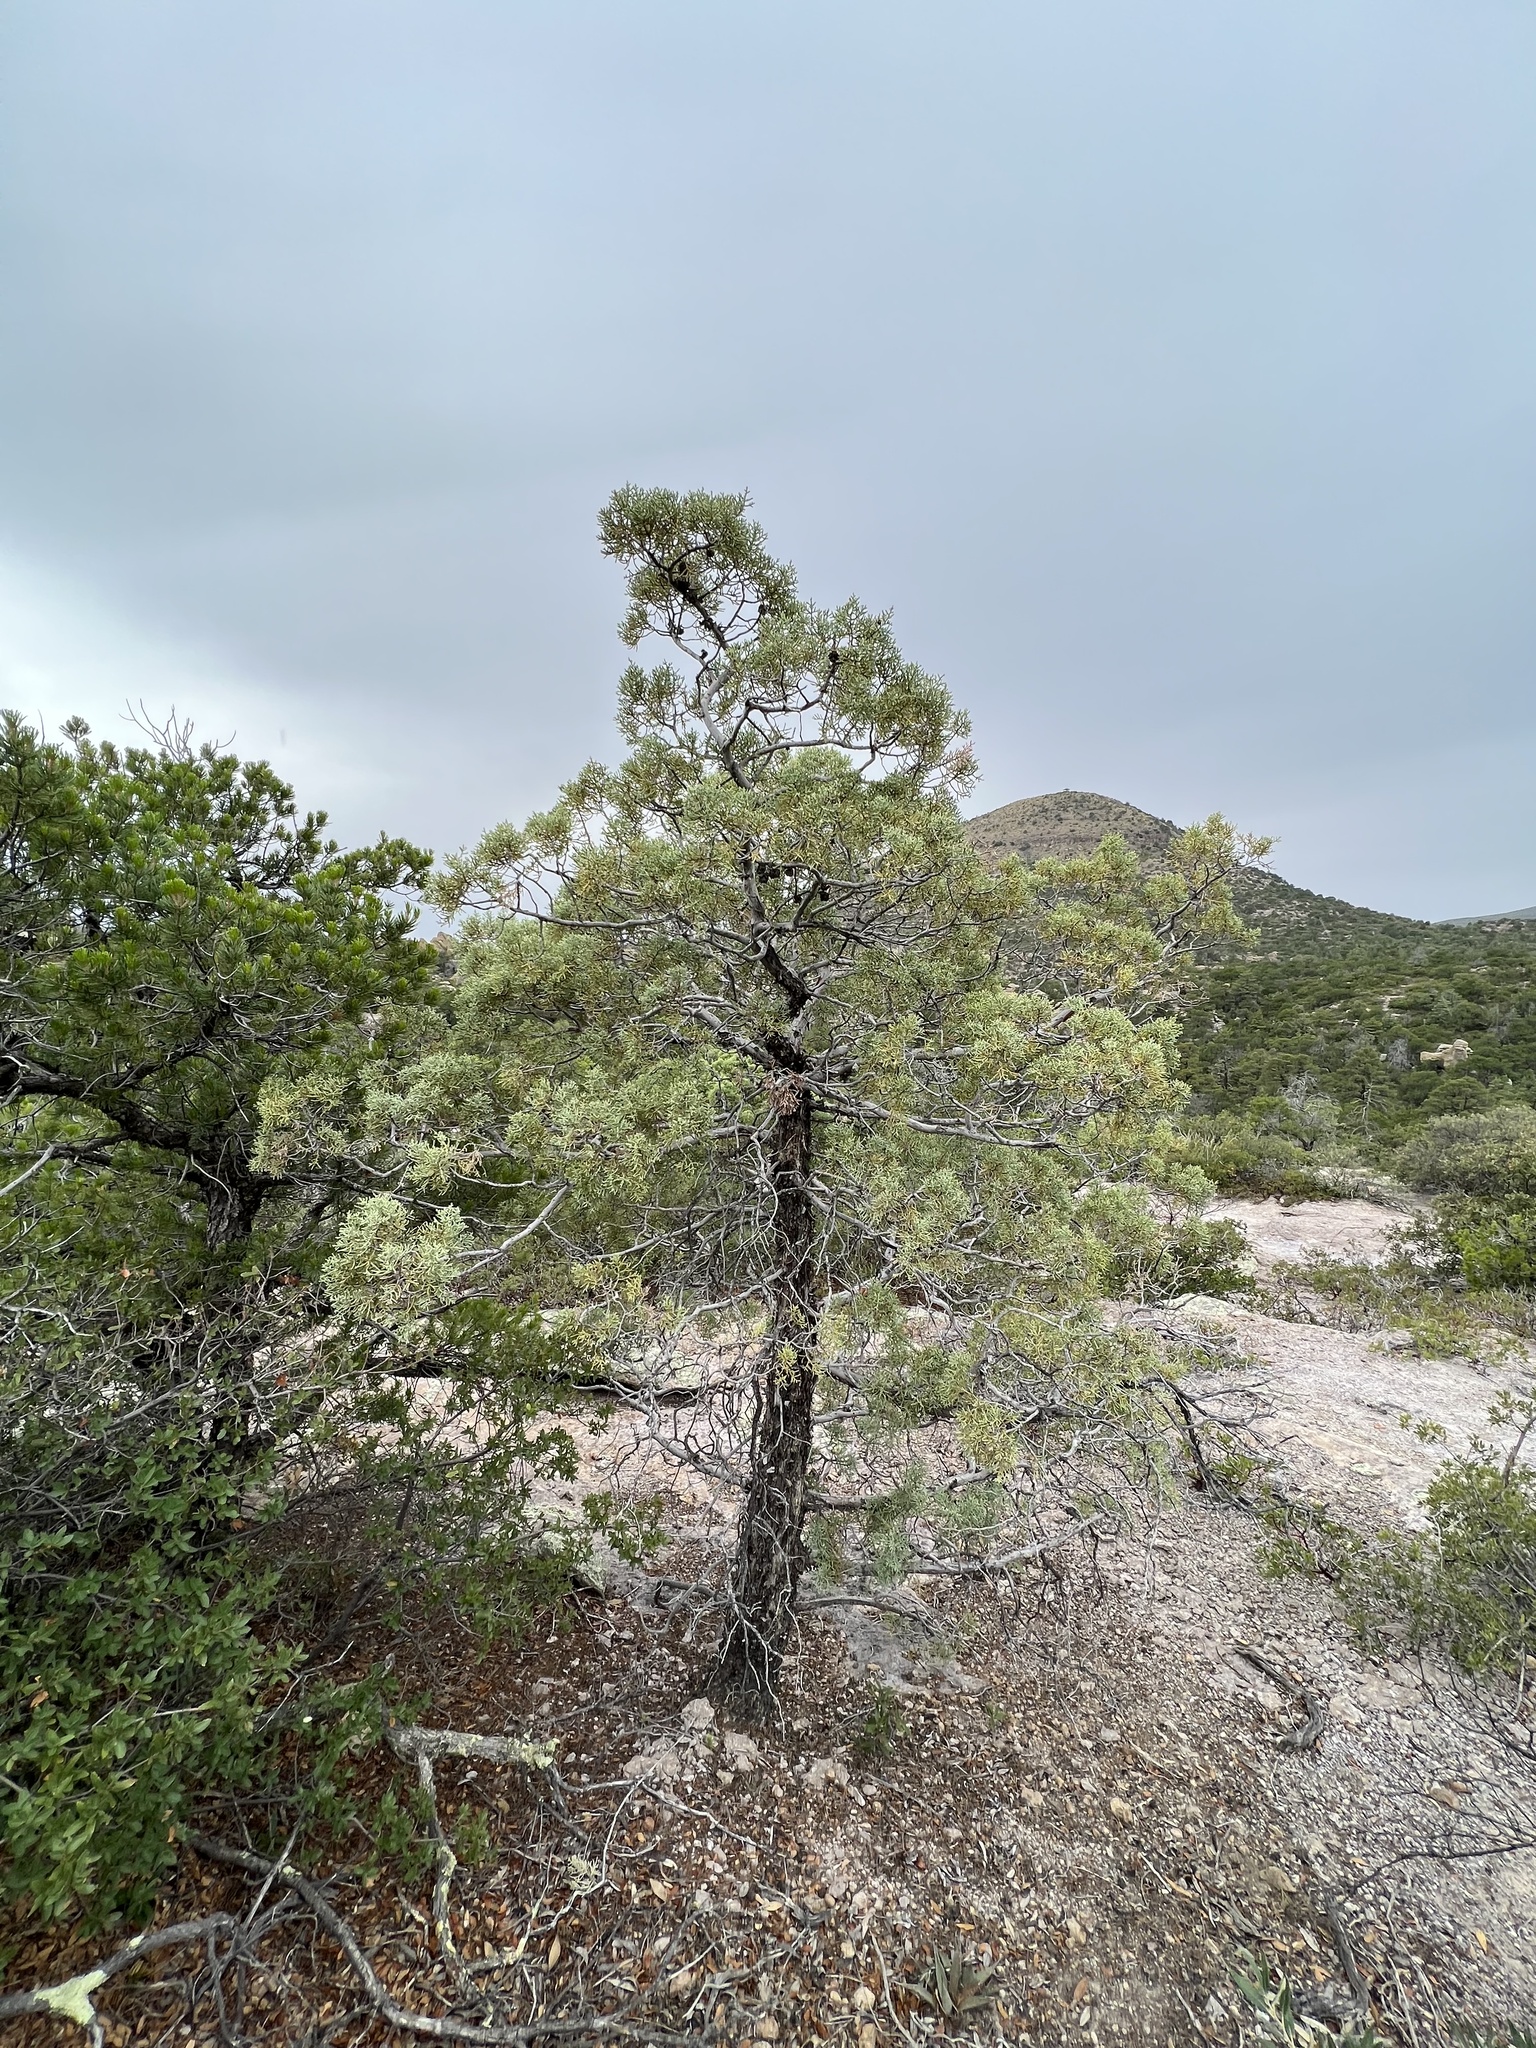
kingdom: Plantae
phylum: Tracheophyta
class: Pinopsida
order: Pinales
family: Cupressaceae
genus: Cupressus
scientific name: Cupressus arizonica
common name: Arizona cypress
